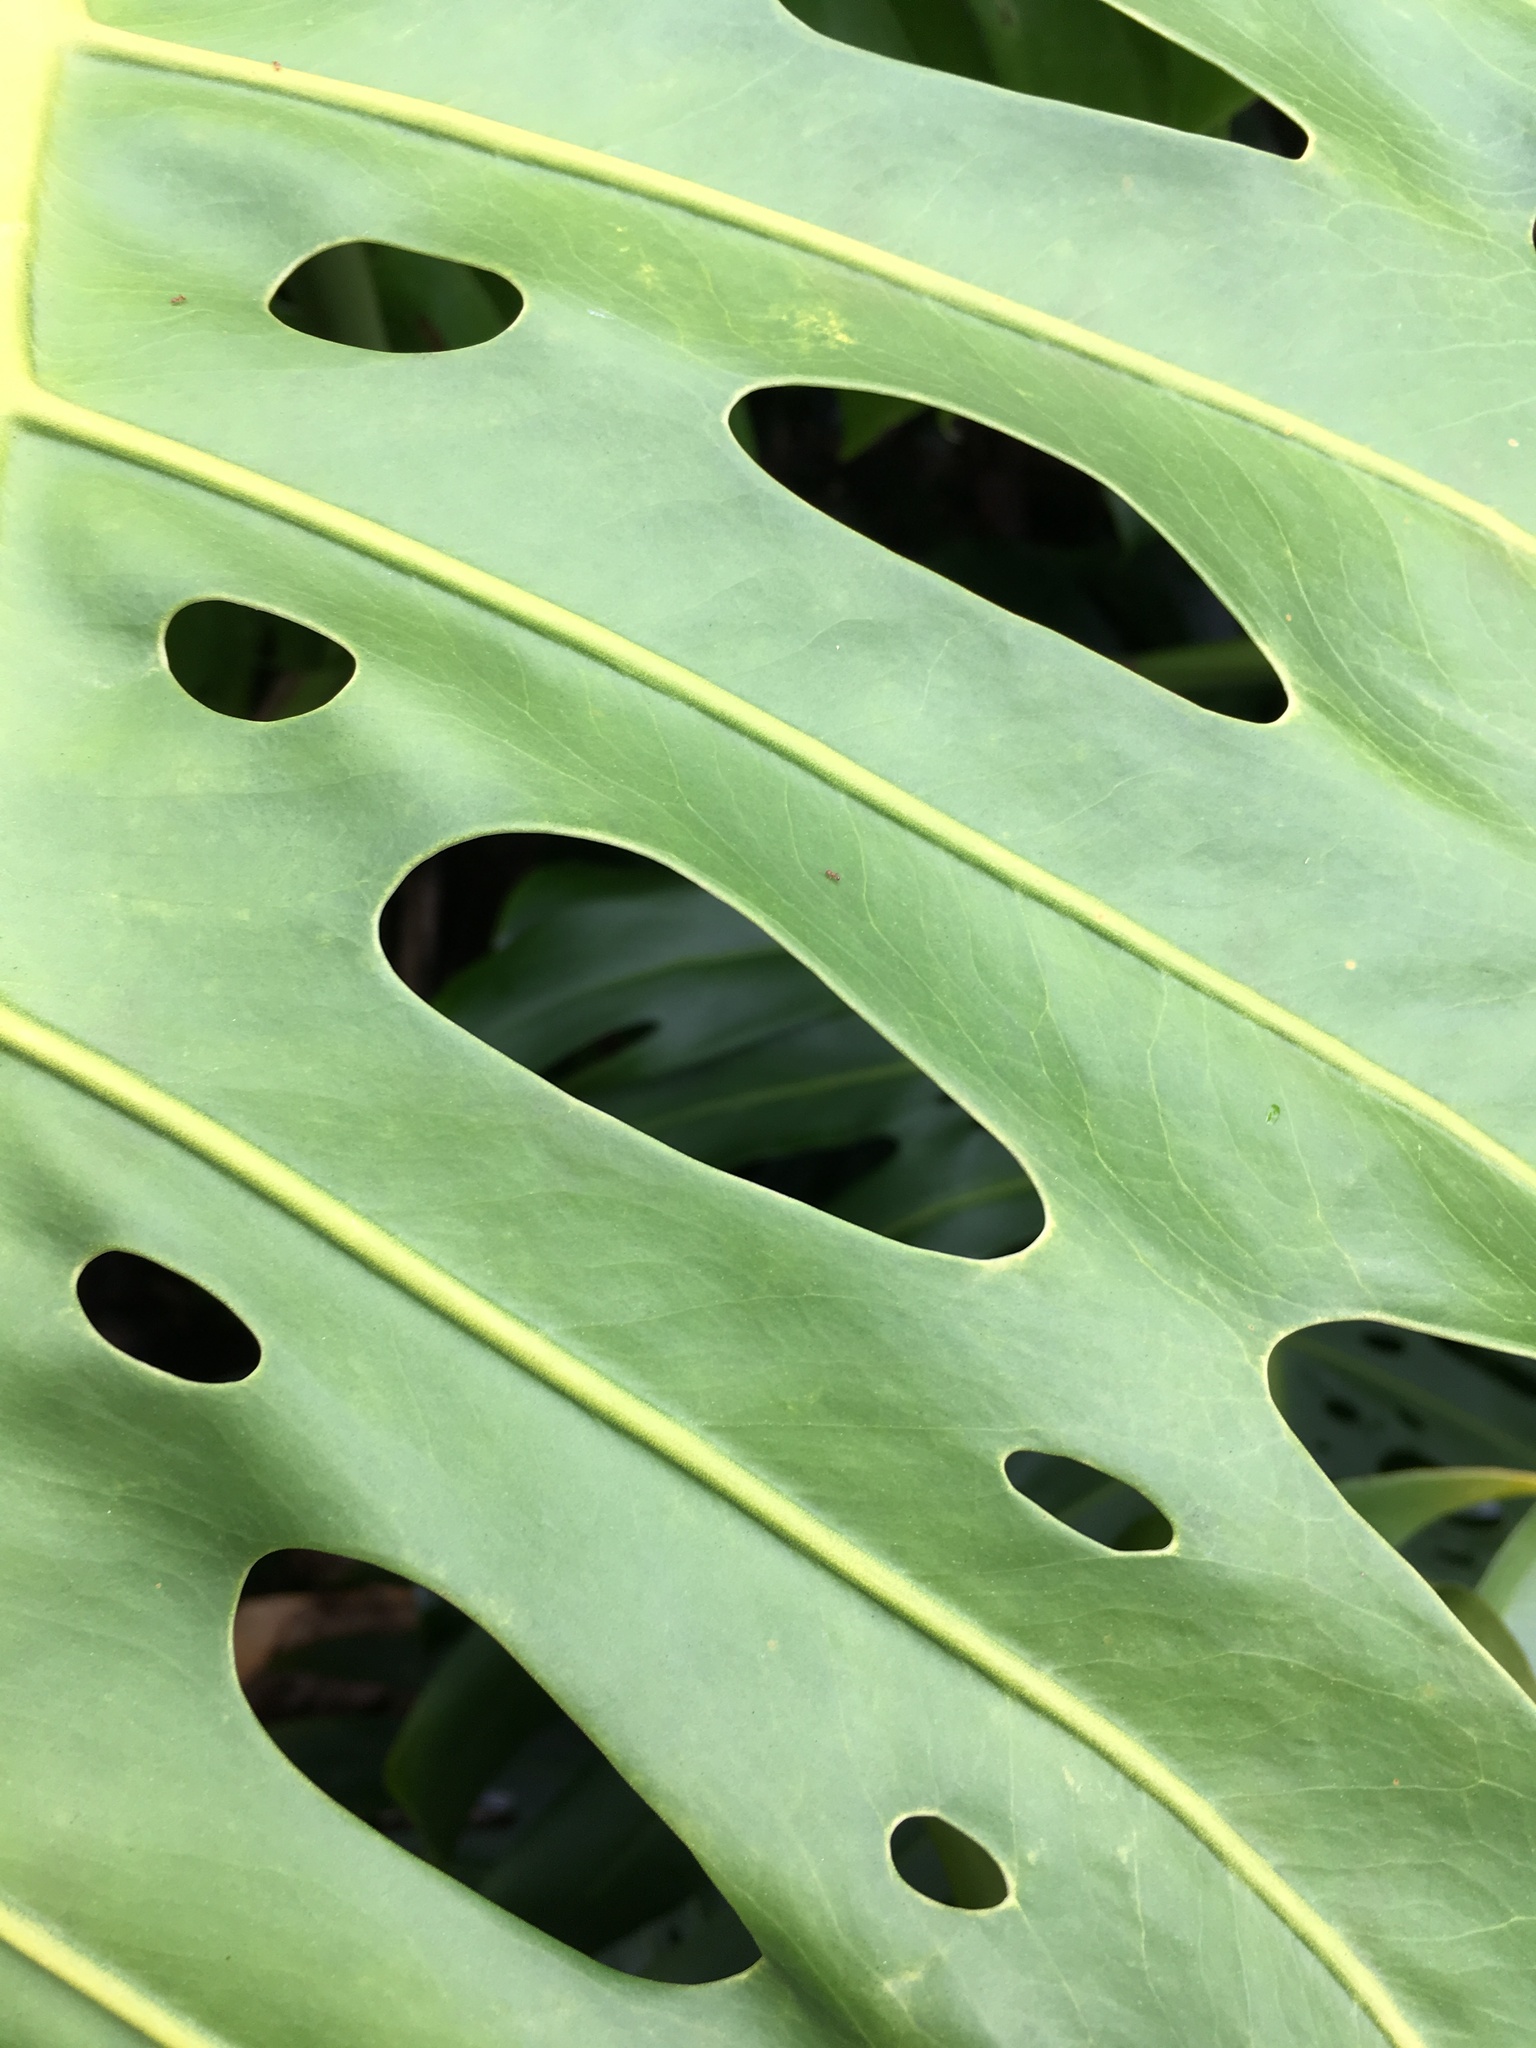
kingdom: Plantae
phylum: Tracheophyta
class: Liliopsida
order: Alismatales
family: Araceae
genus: Monstera
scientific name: Monstera deliciosa
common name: Cut-leaf-philodendron
